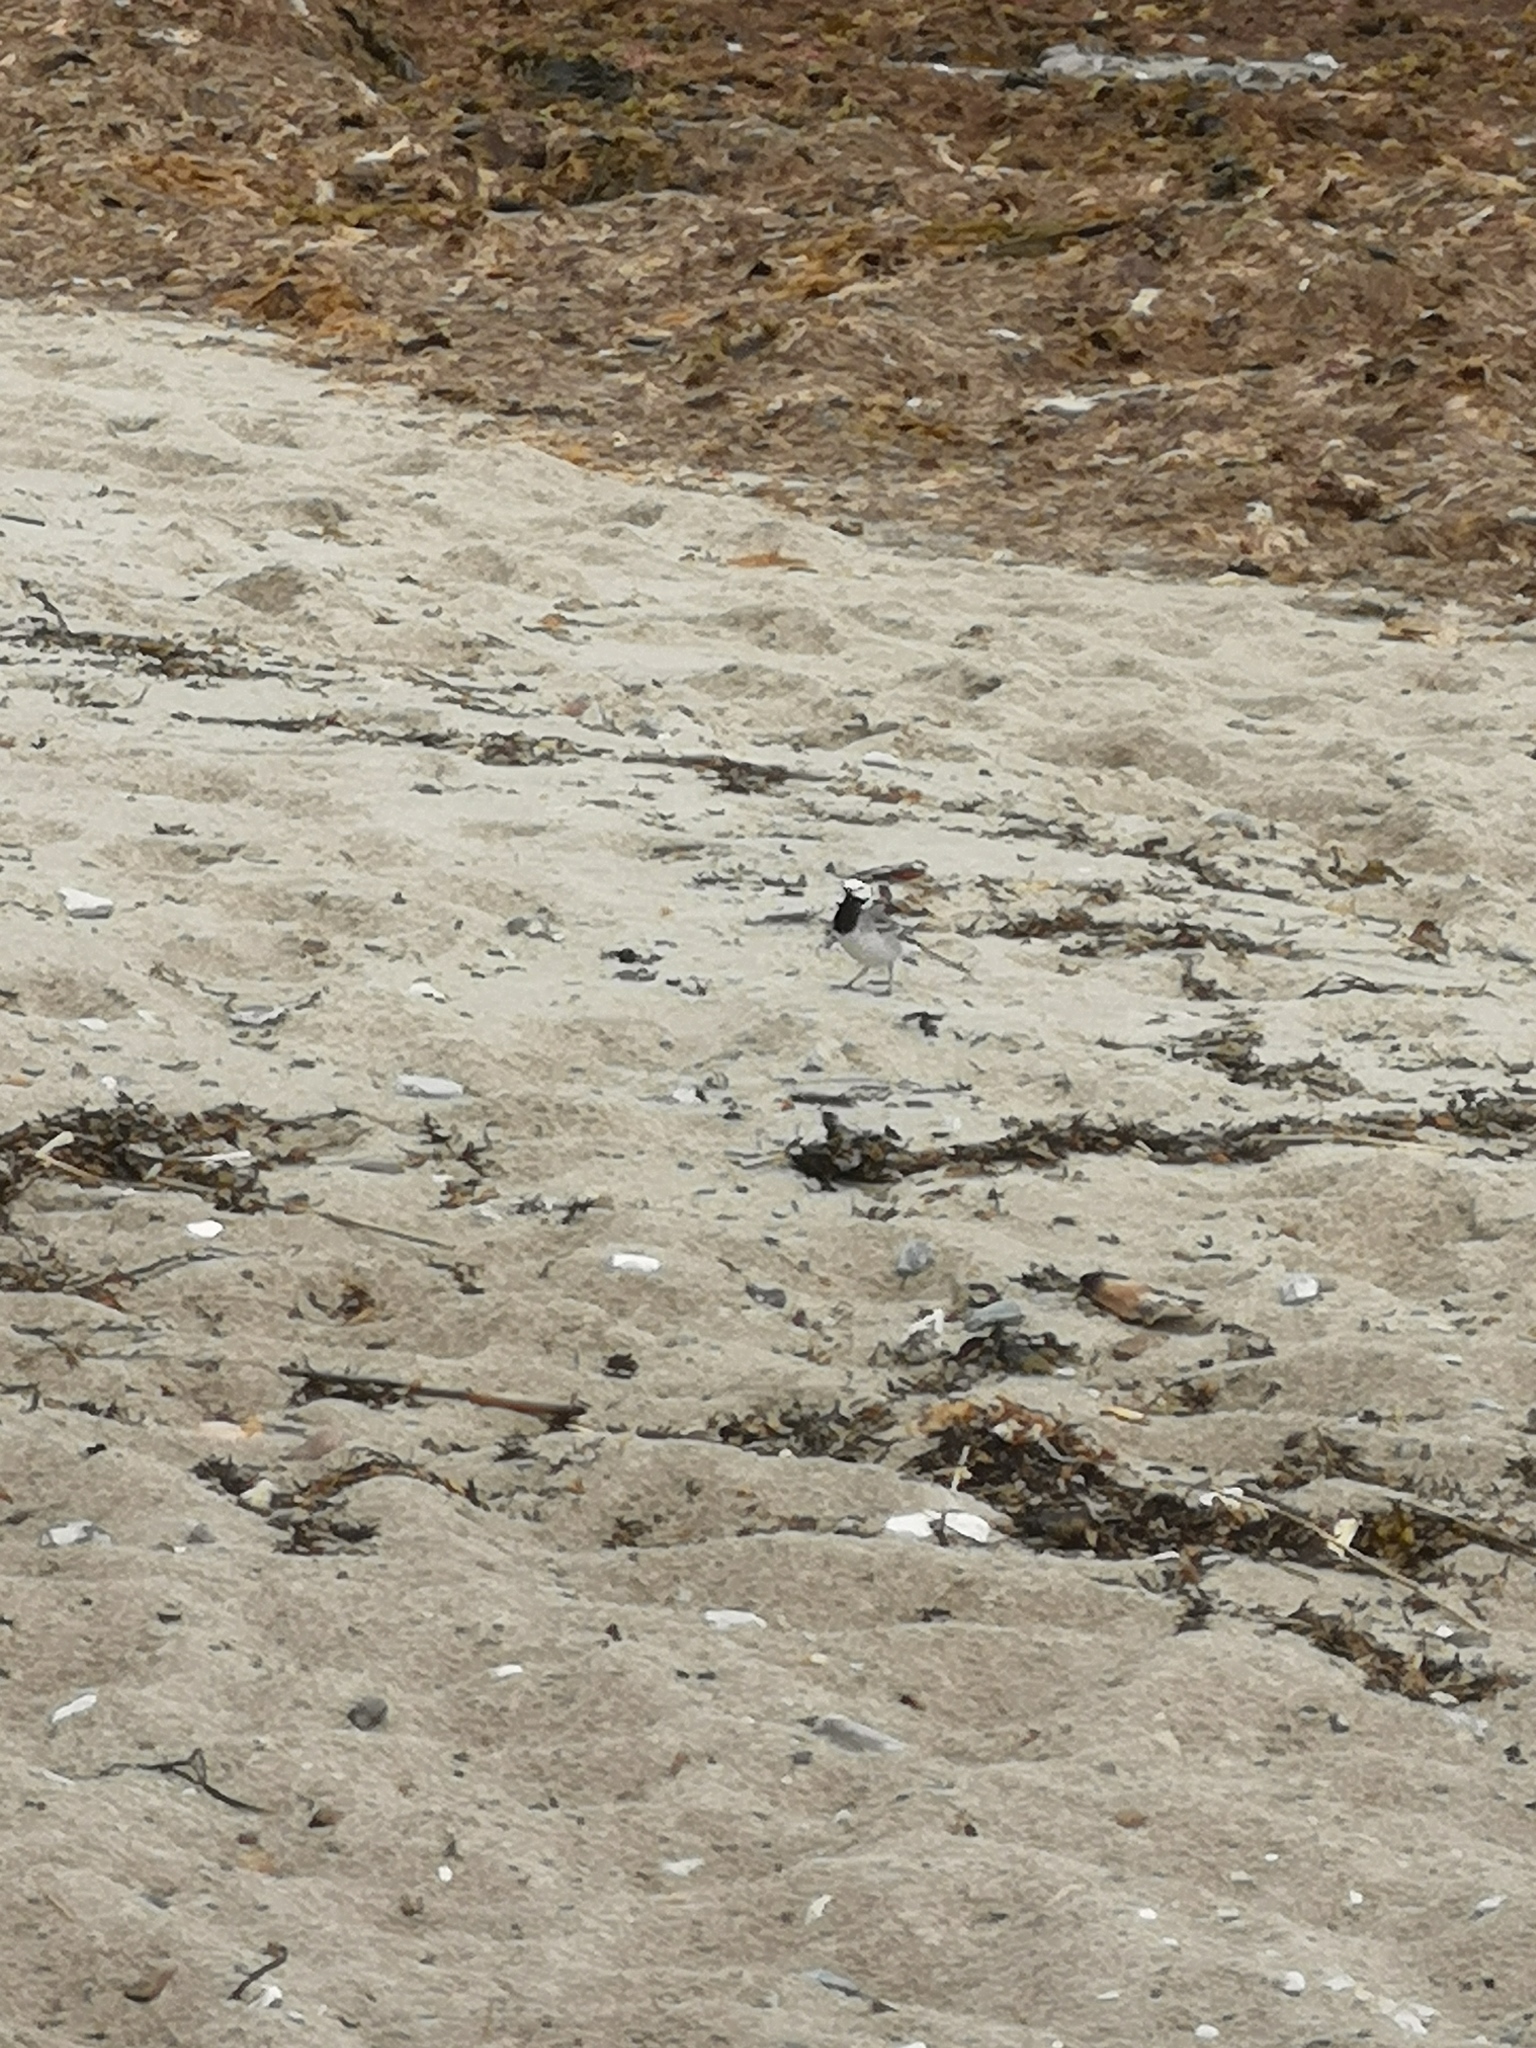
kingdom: Animalia
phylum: Chordata
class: Aves
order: Passeriformes
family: Motacillidae
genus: Motacilla
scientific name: Motacilla alba
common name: White wagtail
